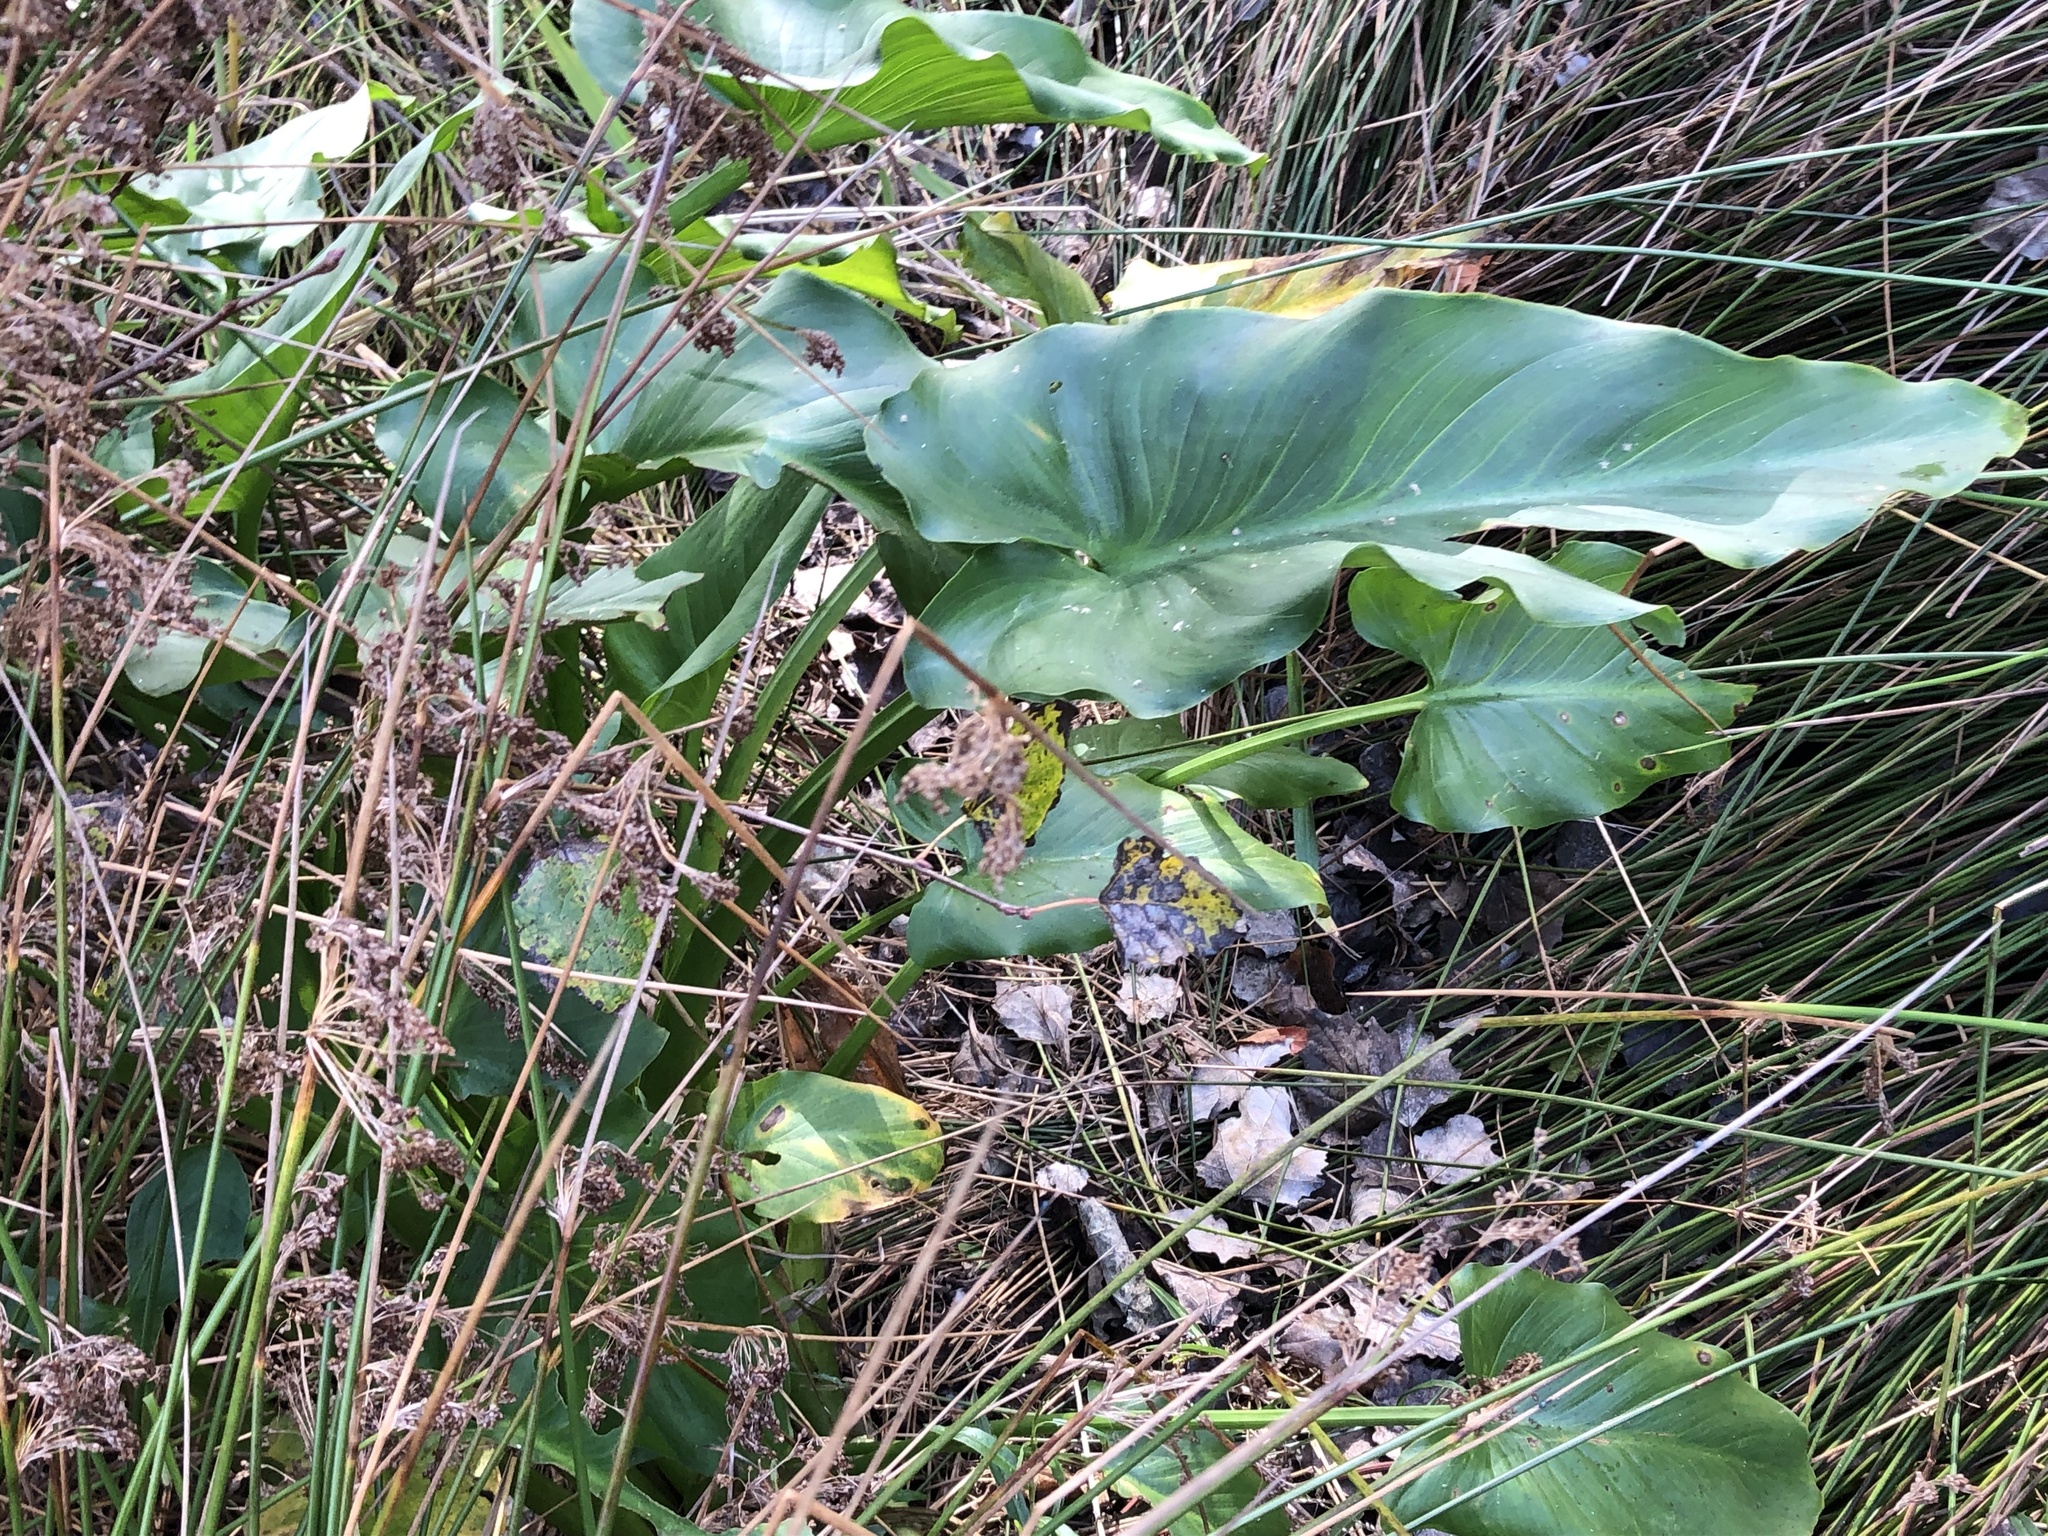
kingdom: Plantae
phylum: Tracheophyta
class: Liliopsida
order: Alismatales
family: Araceae
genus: Zantedeschia
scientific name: Zantedeschia aethiopica
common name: Altar-lily
